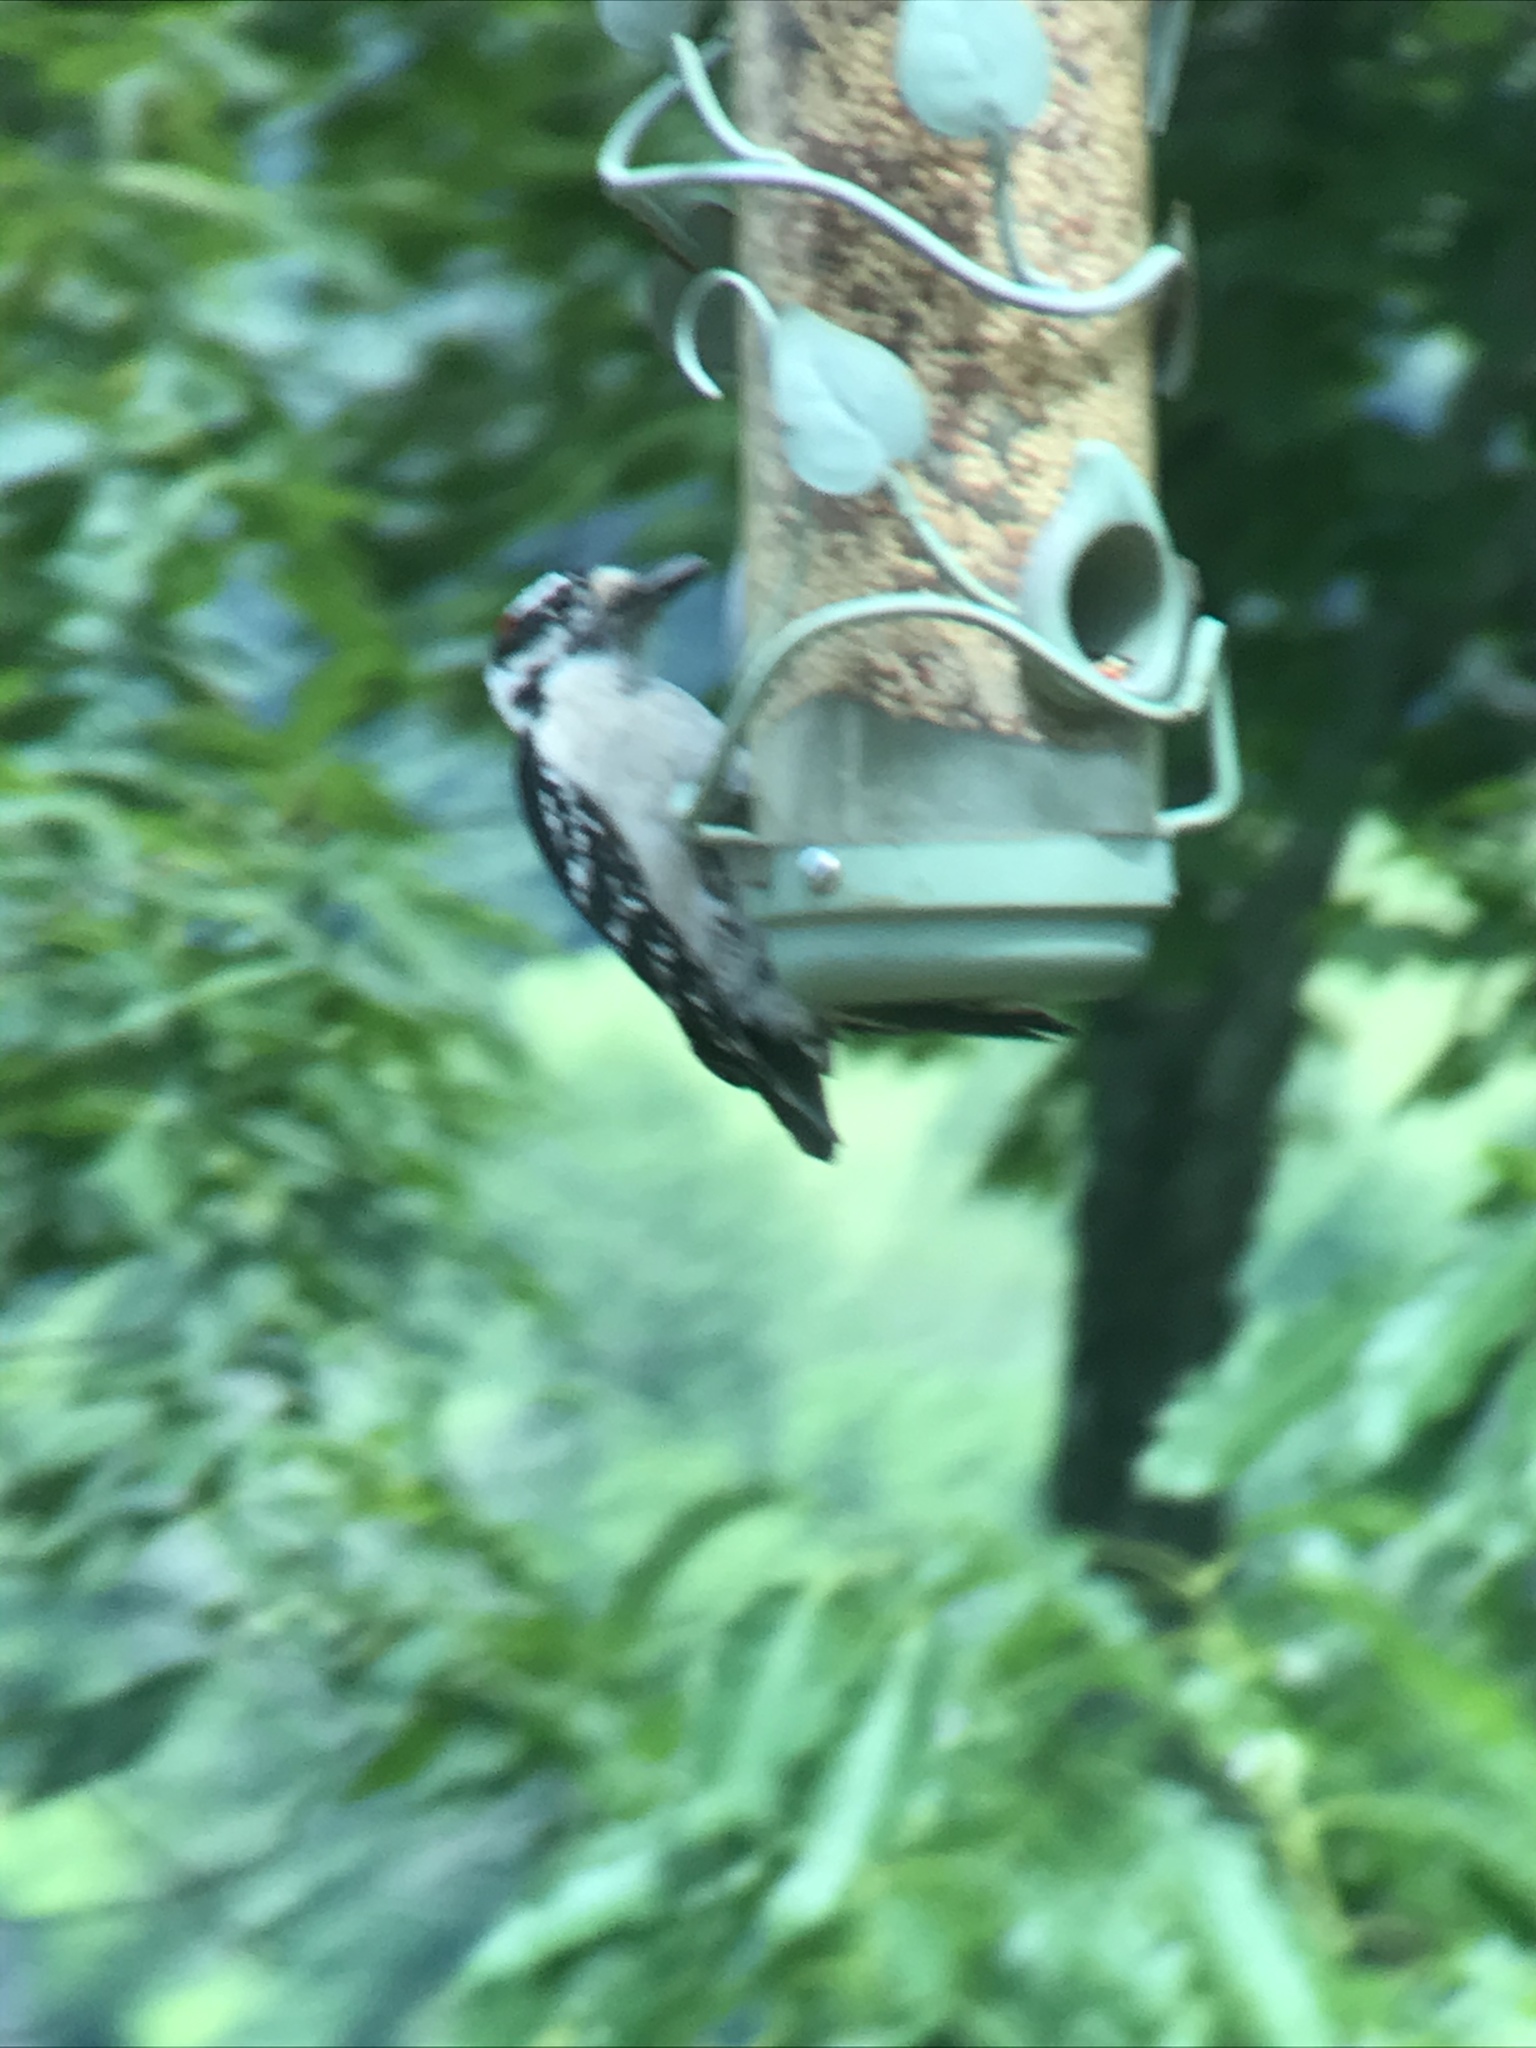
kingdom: Animalia
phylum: Chordata
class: Aves
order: Piciformes
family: Picidae
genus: Dryobates
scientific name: Dryobates pubescens
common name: Downy woodpecker
